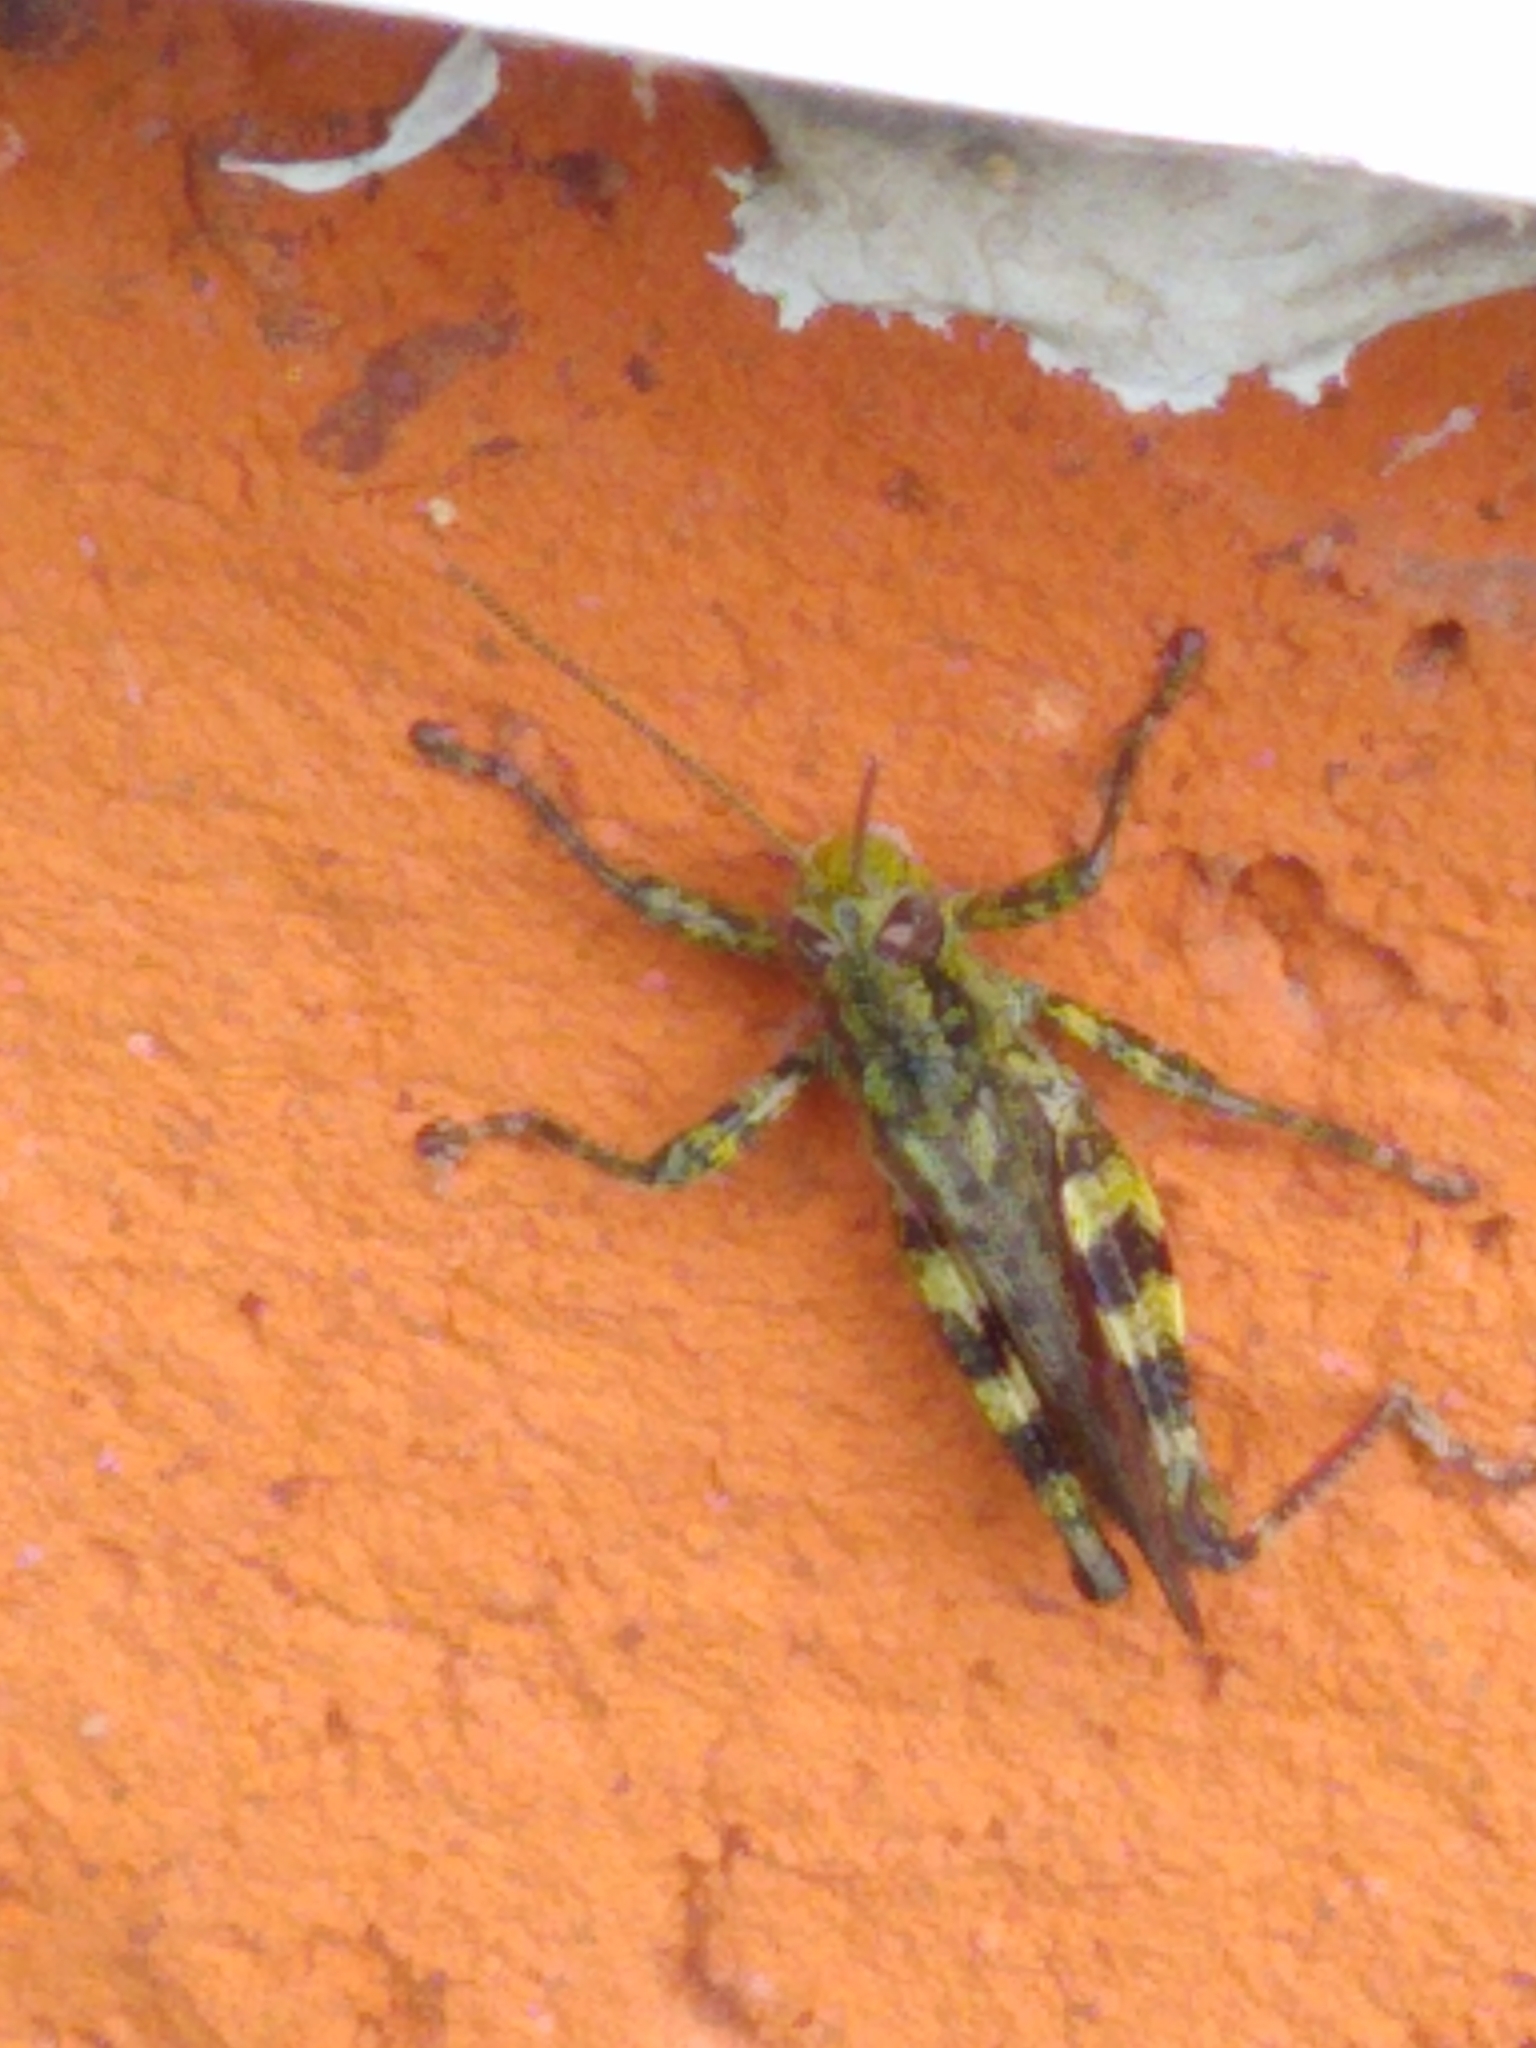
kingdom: Animalia
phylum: Arthropoda
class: Insecta
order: Orthoptera
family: Acrididae
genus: Melanoplus
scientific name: Melanoplus punctulatus
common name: Pine-tree spur-throat grasshopper
